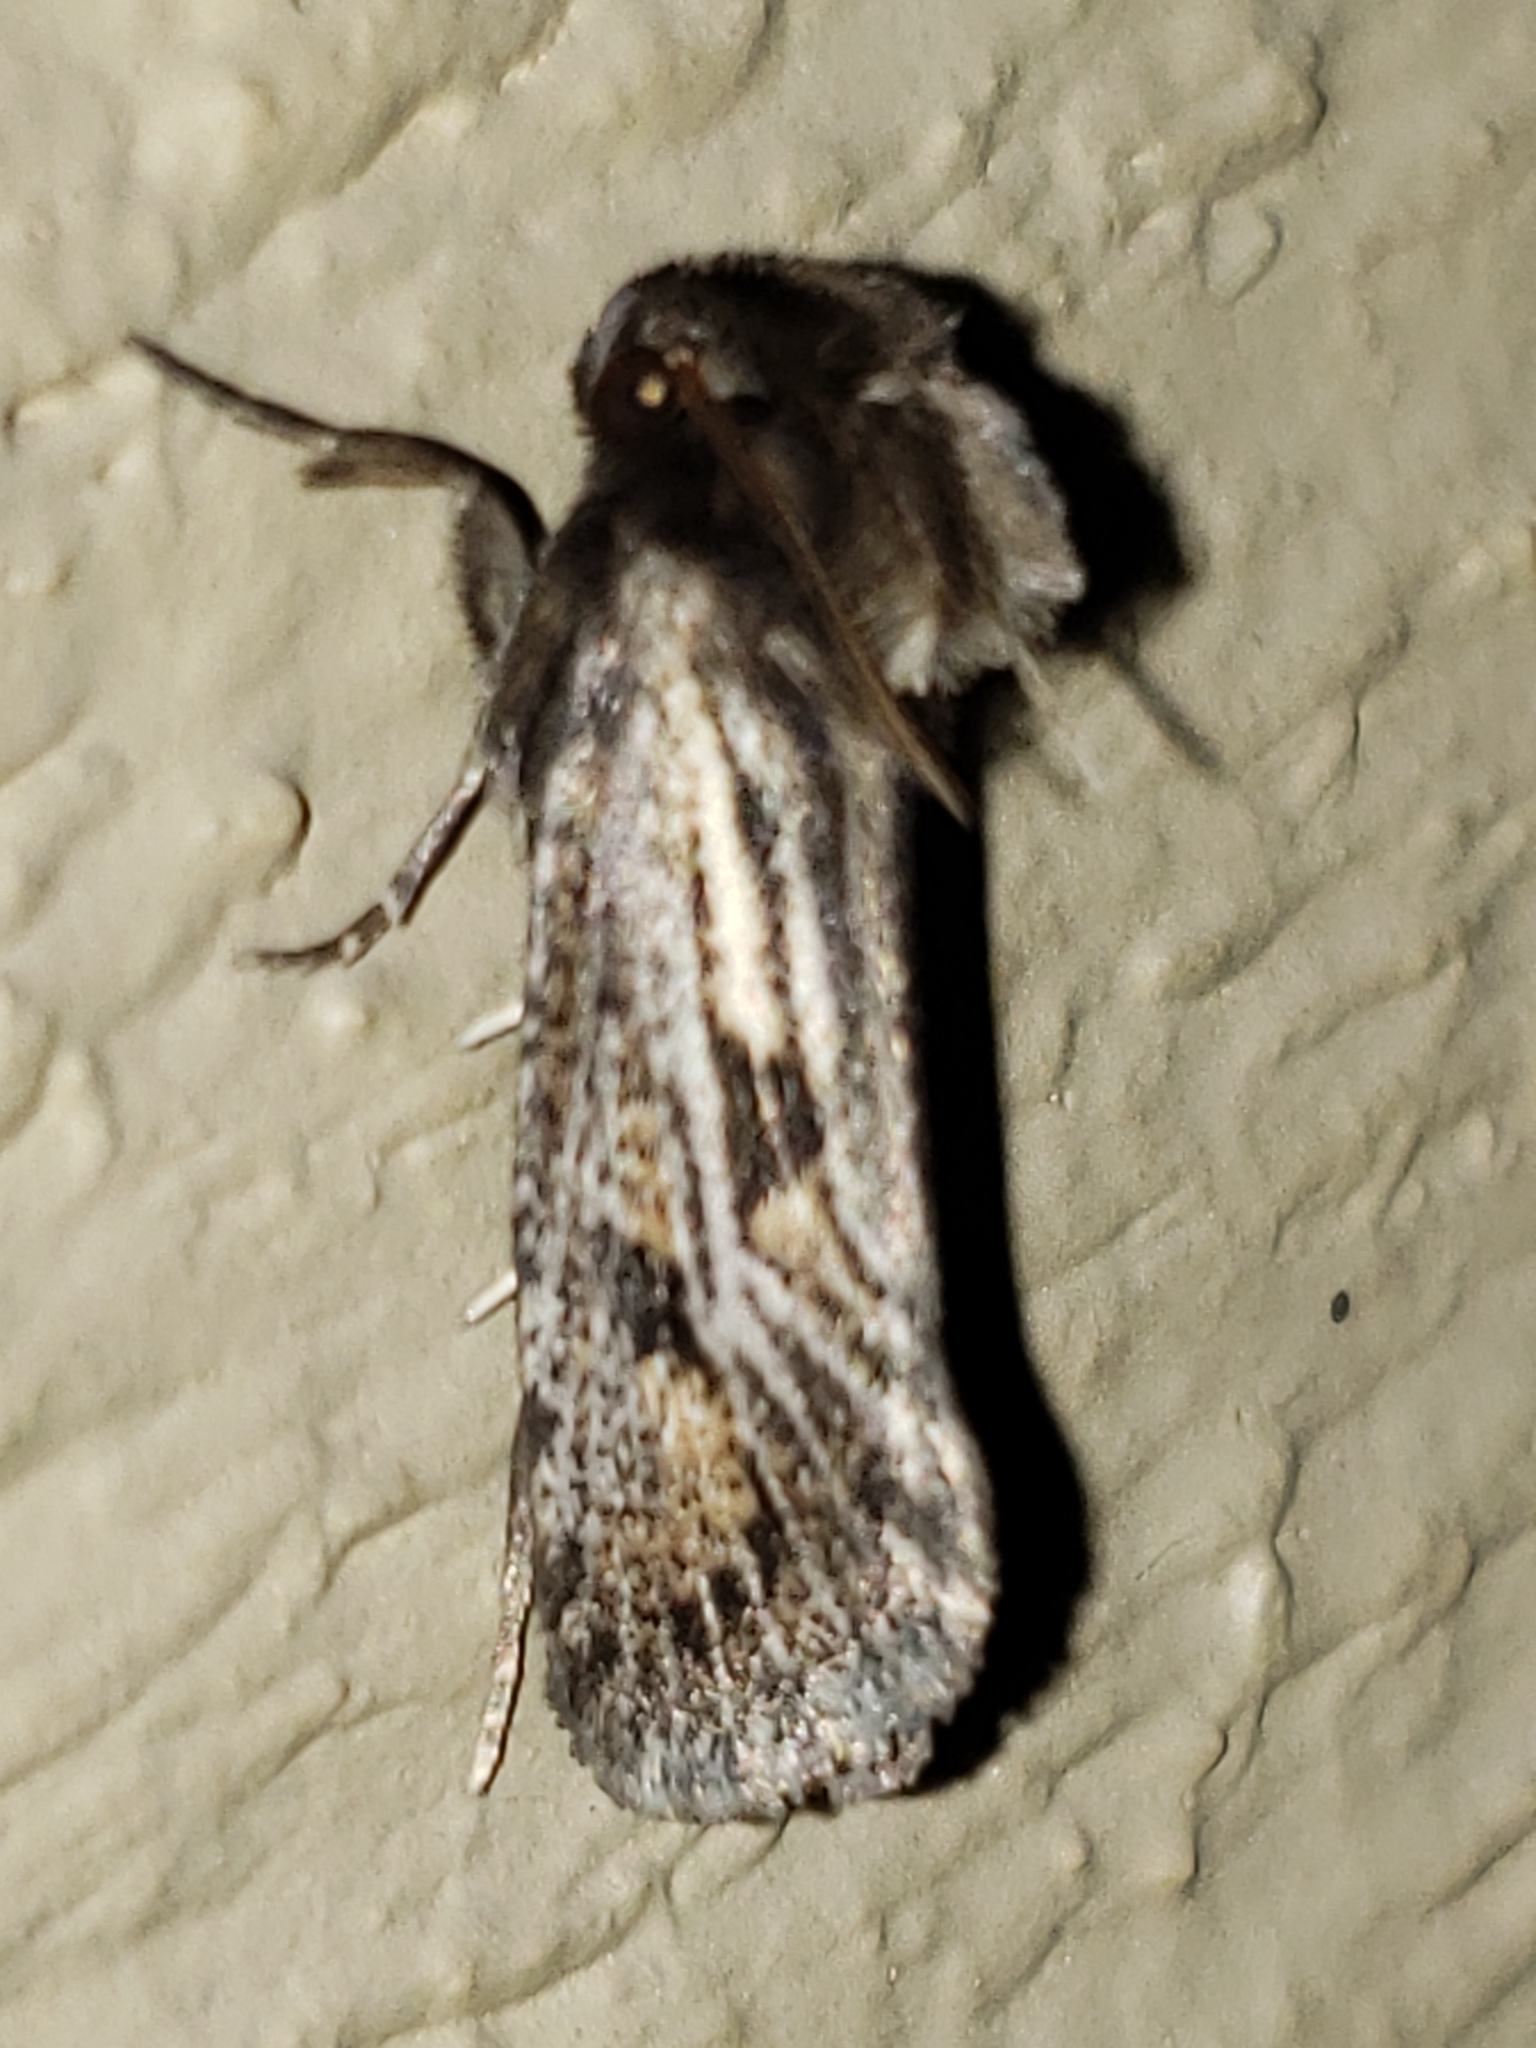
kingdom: Animalia
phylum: Arthropoda
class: Insecta
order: Lepidoptera
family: Tineidae
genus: Acrolophus
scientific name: Acrolophus popeanella
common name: Clemens' grass tubeworm moth
